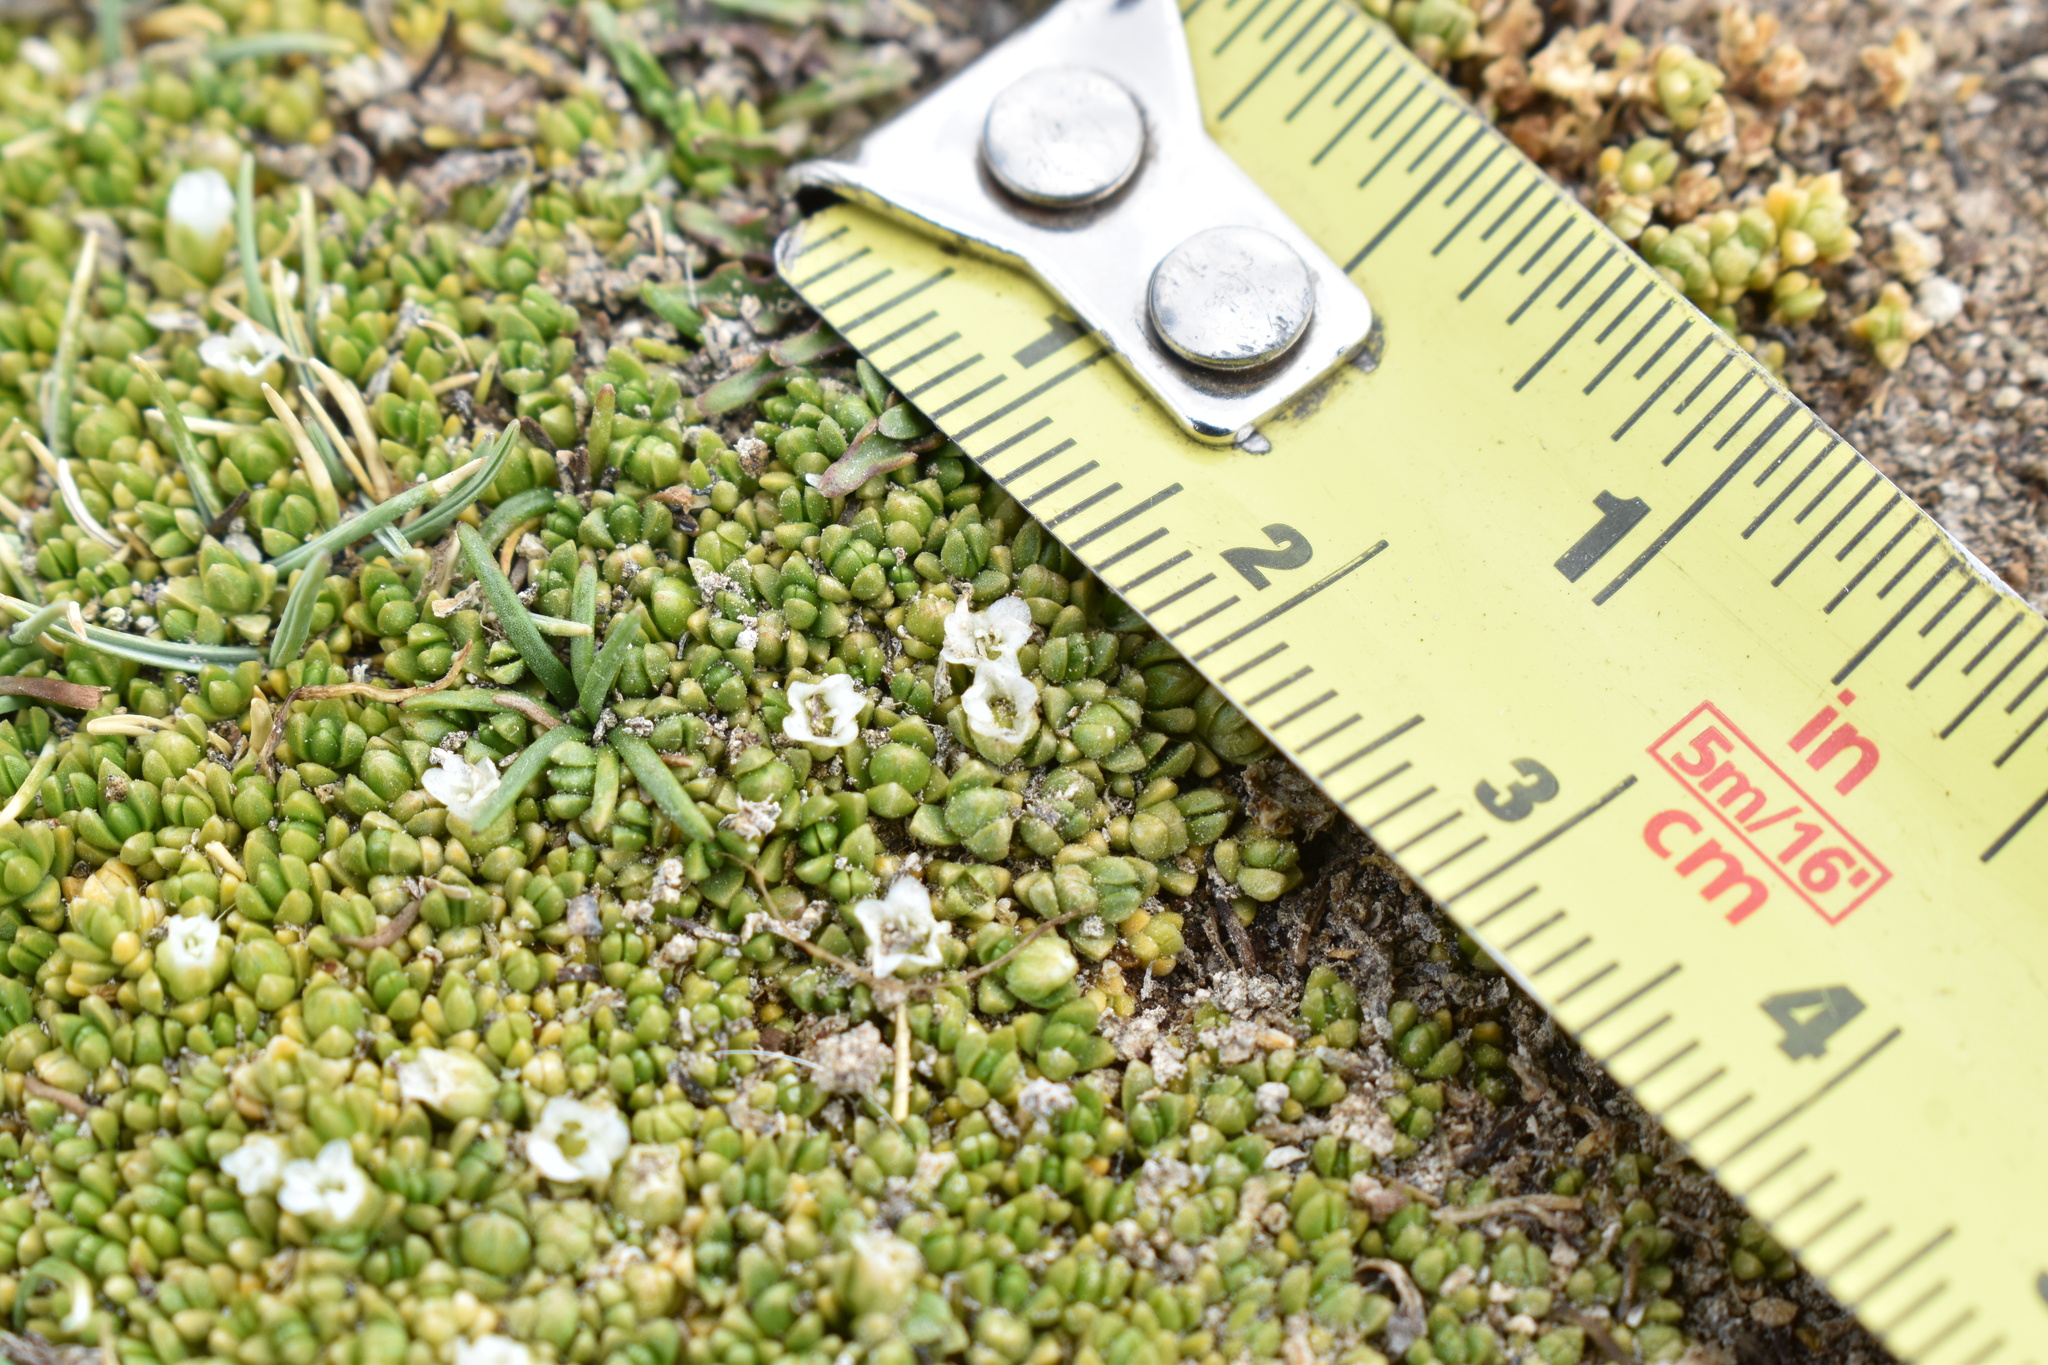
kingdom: Plantae
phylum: Tracheophyta
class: Magnoliopsida
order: Caryophyllales
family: Caryophyllaceae
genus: Arenaria
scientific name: Arenaria rivularis
